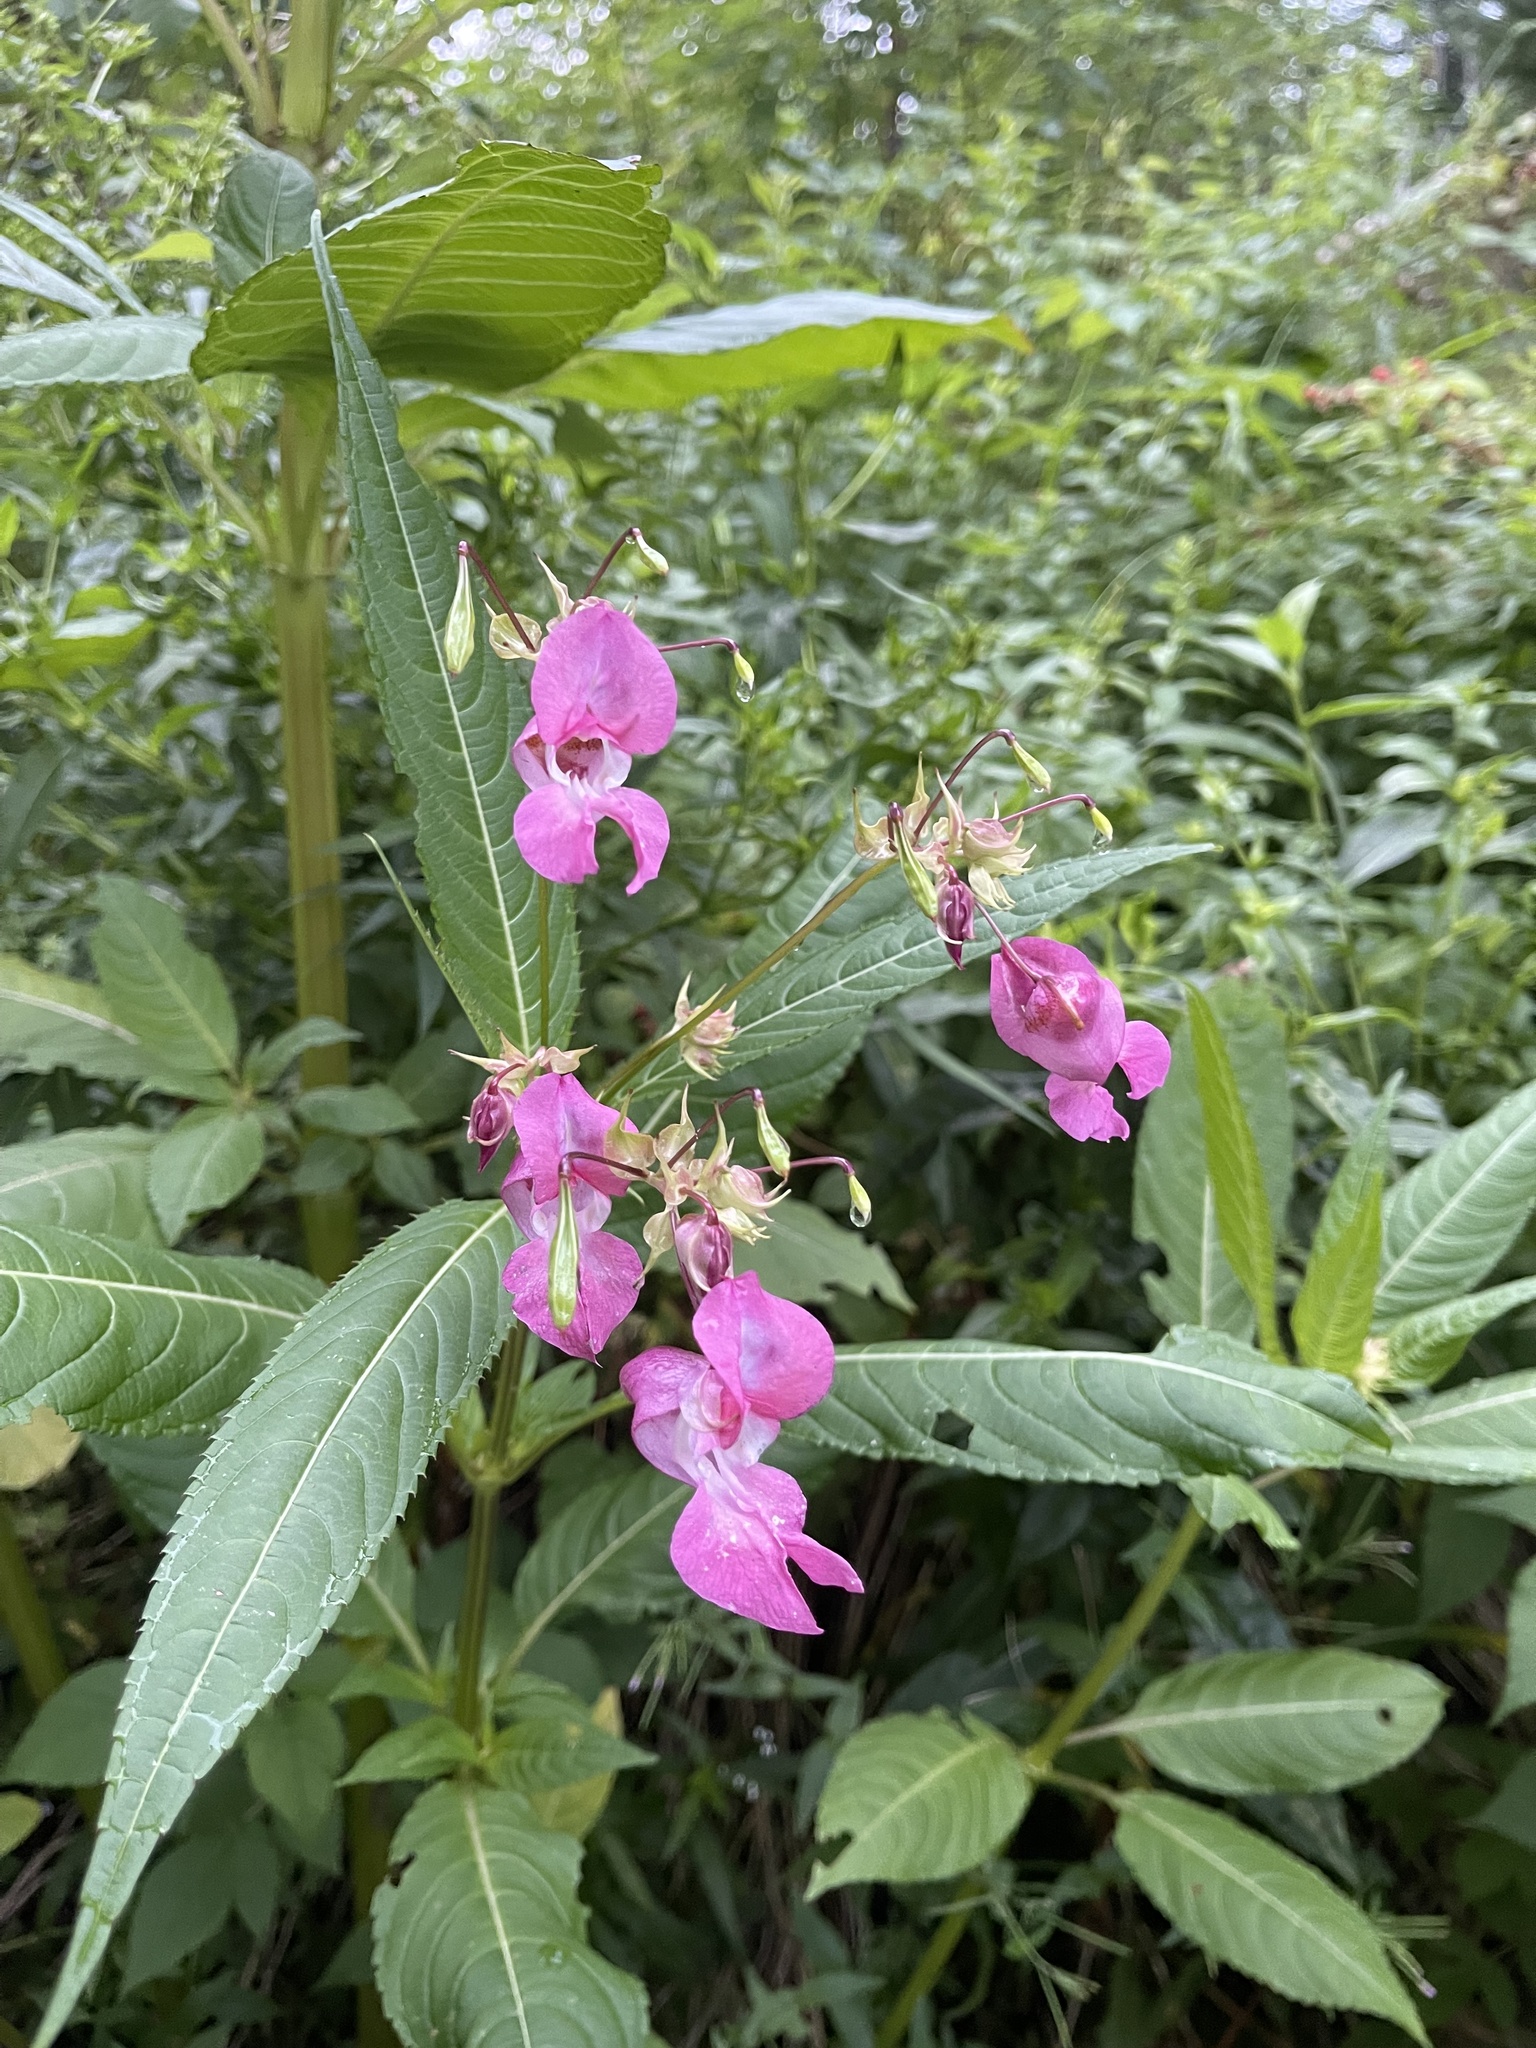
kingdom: Plantae
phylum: Tracheophyta
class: Magnoliopsida
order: Ericales
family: Balsaminaceae
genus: Impatiens
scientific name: Impatiens glandulifera
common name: Himalayan balsam
